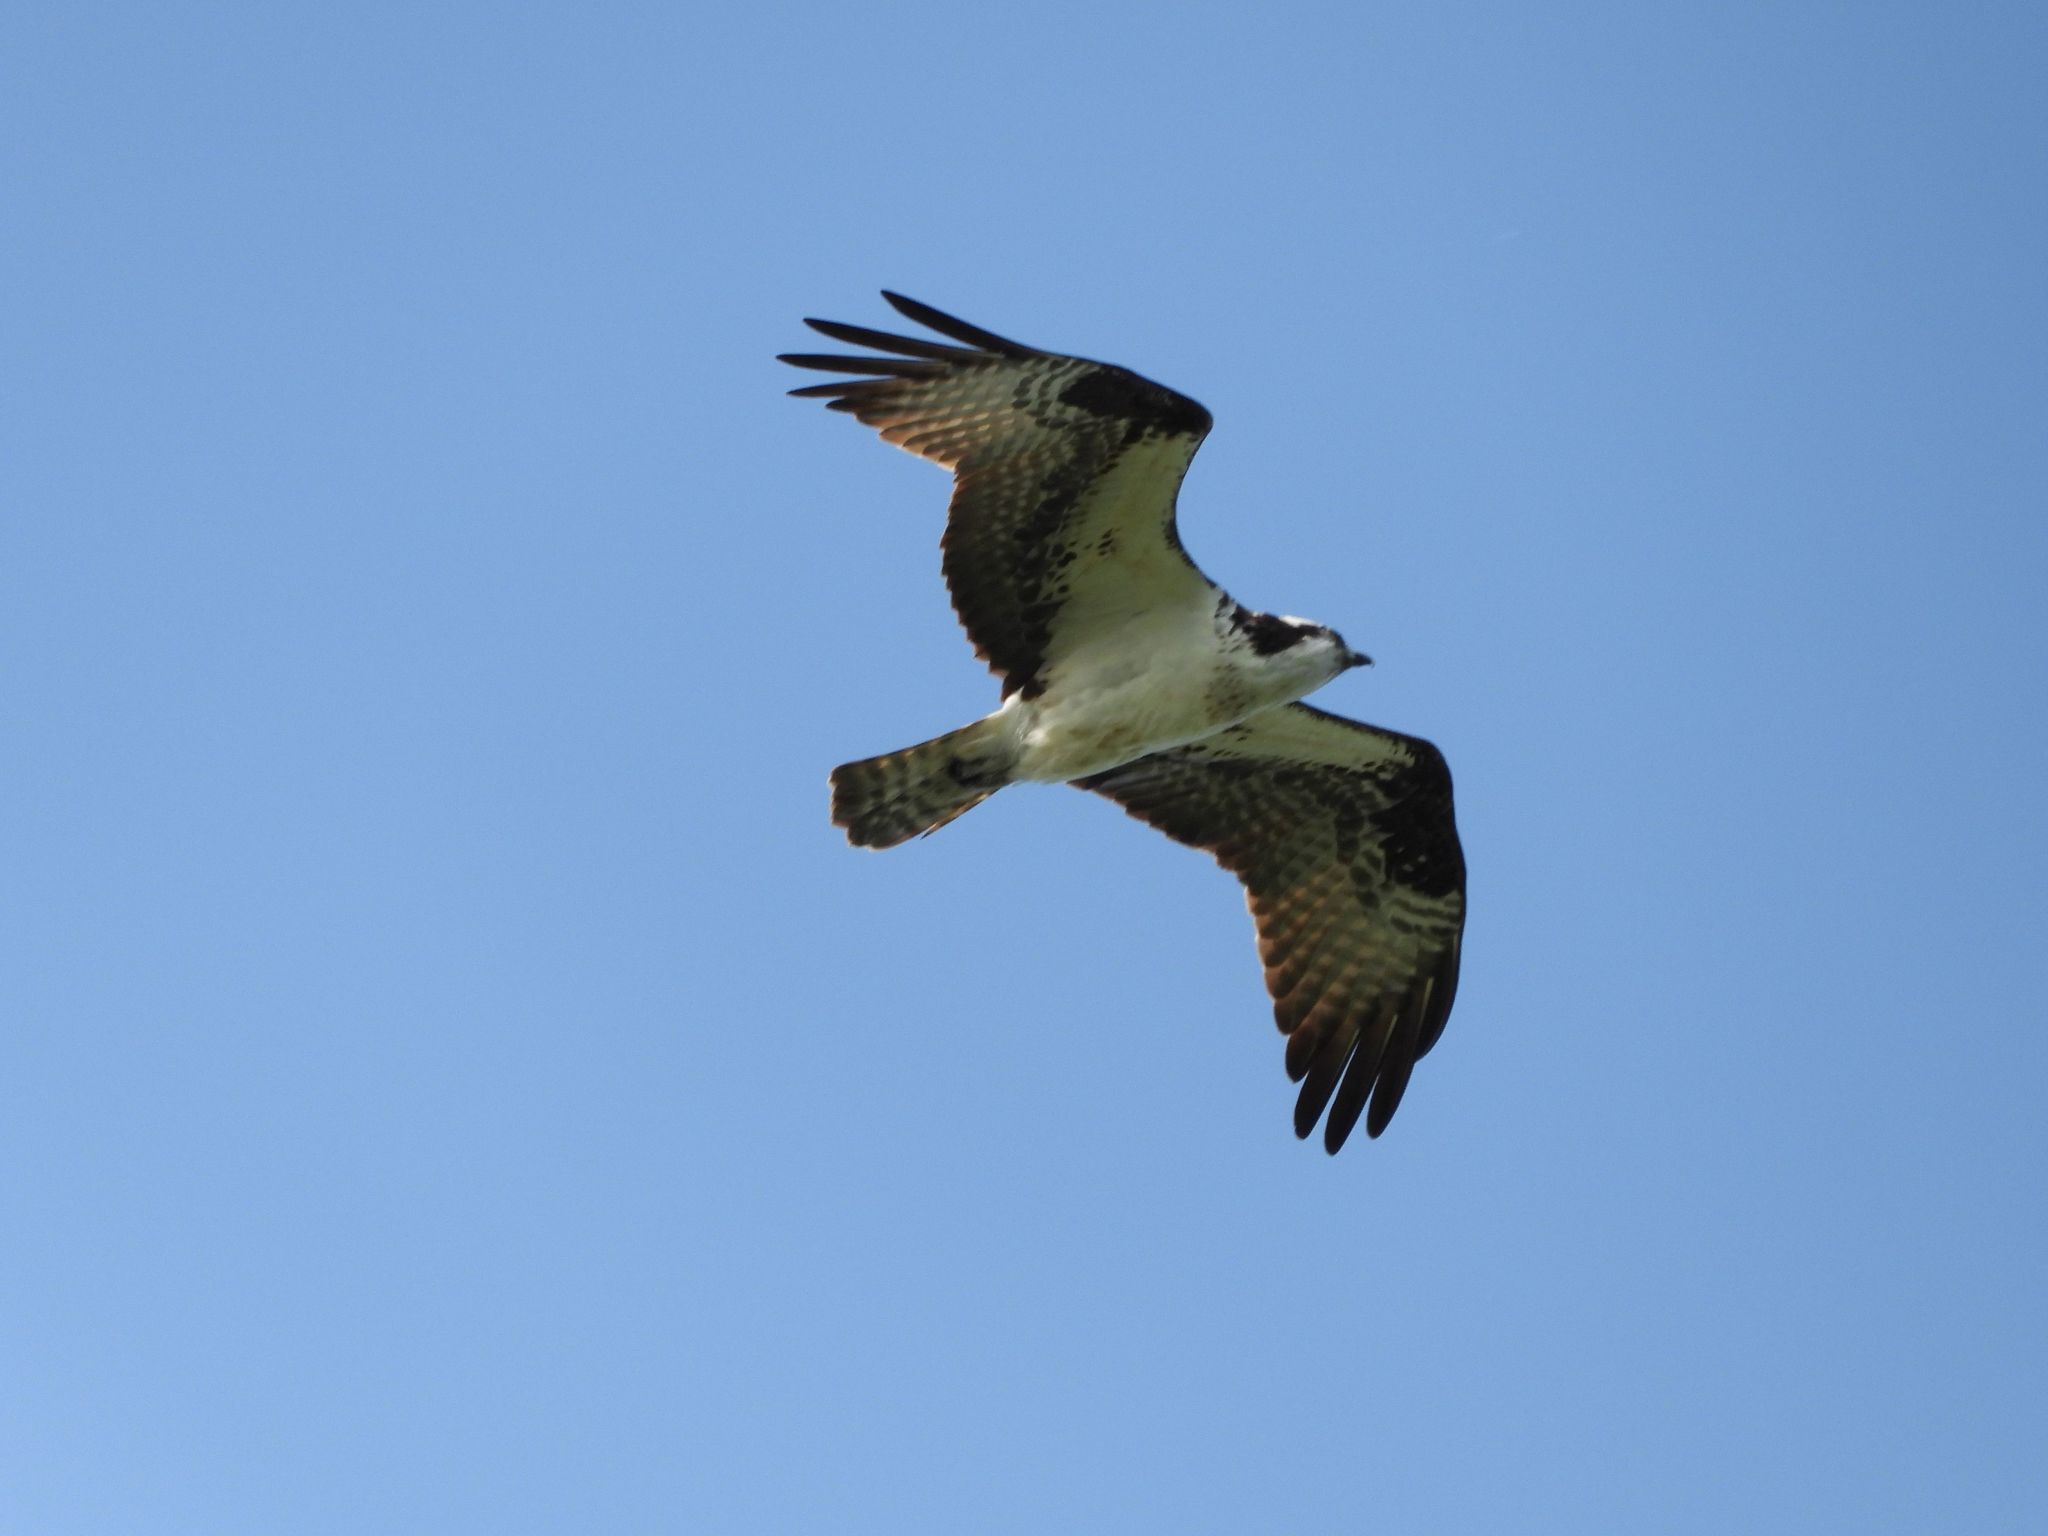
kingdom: Animalia
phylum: Chordata
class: Aves
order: Accipitriformes
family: Pandionidae
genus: Pandion
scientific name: Pandion haliaetus
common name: Osprey
